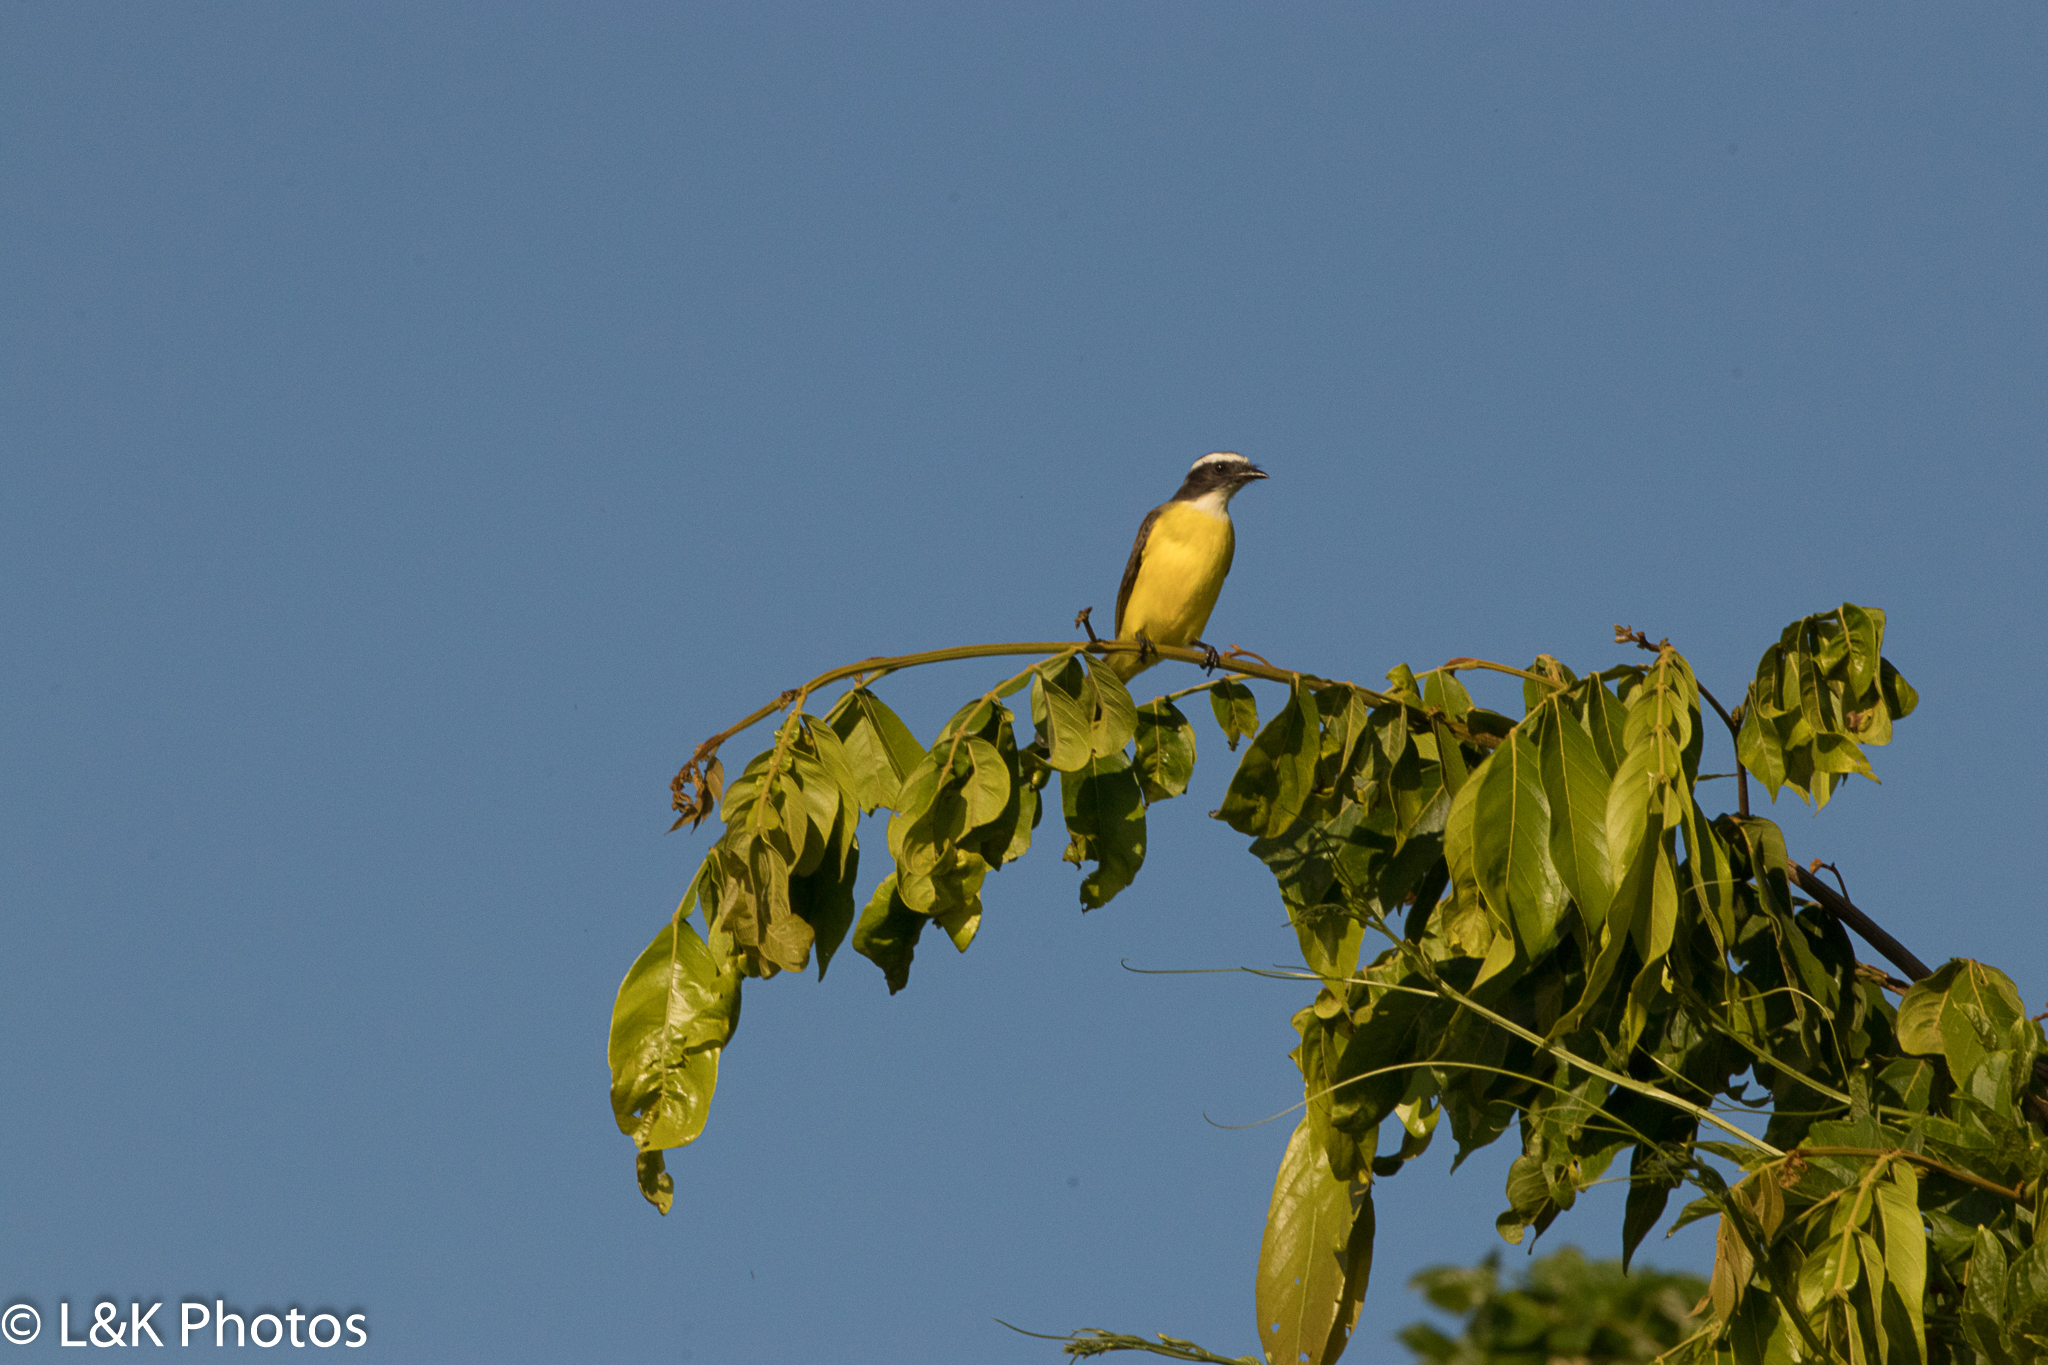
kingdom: Animalia
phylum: Chordata
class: Aves
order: Passeriformes
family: Tyrannidae
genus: Myiozetetes
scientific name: Myiozetetes similis
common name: Social flycatcher
